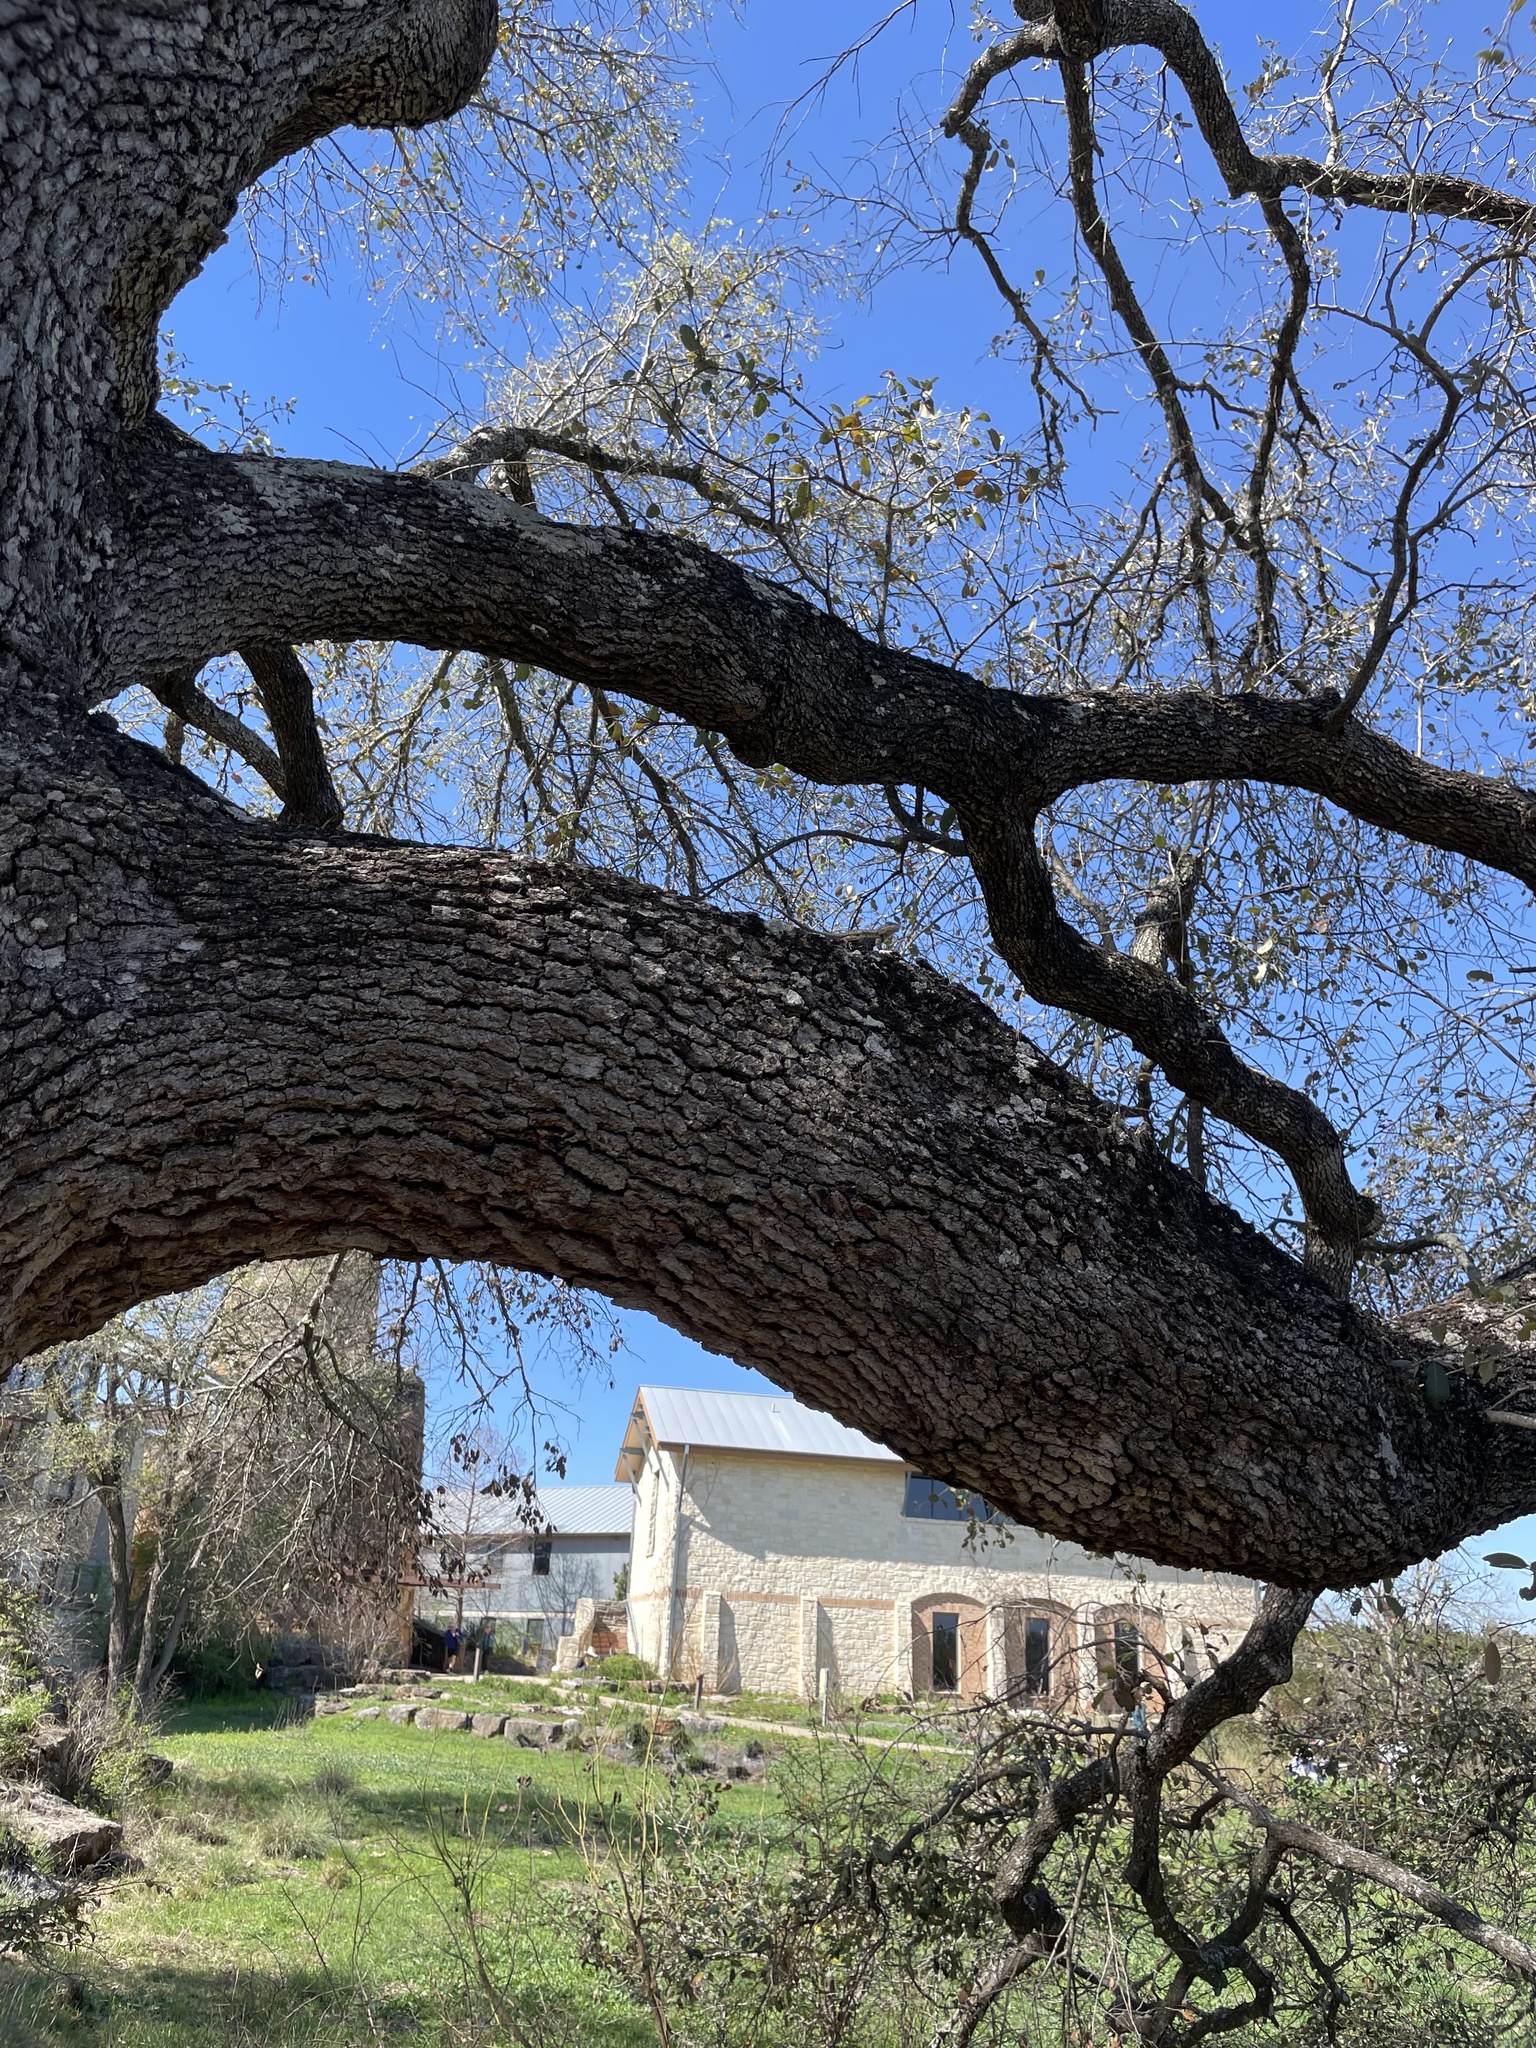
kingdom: Animalia
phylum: Chordata
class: Squamata
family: Phrynosomatidae
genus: Sceloporus
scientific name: Sceloporus olivaceus
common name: Texas spiny lizard
